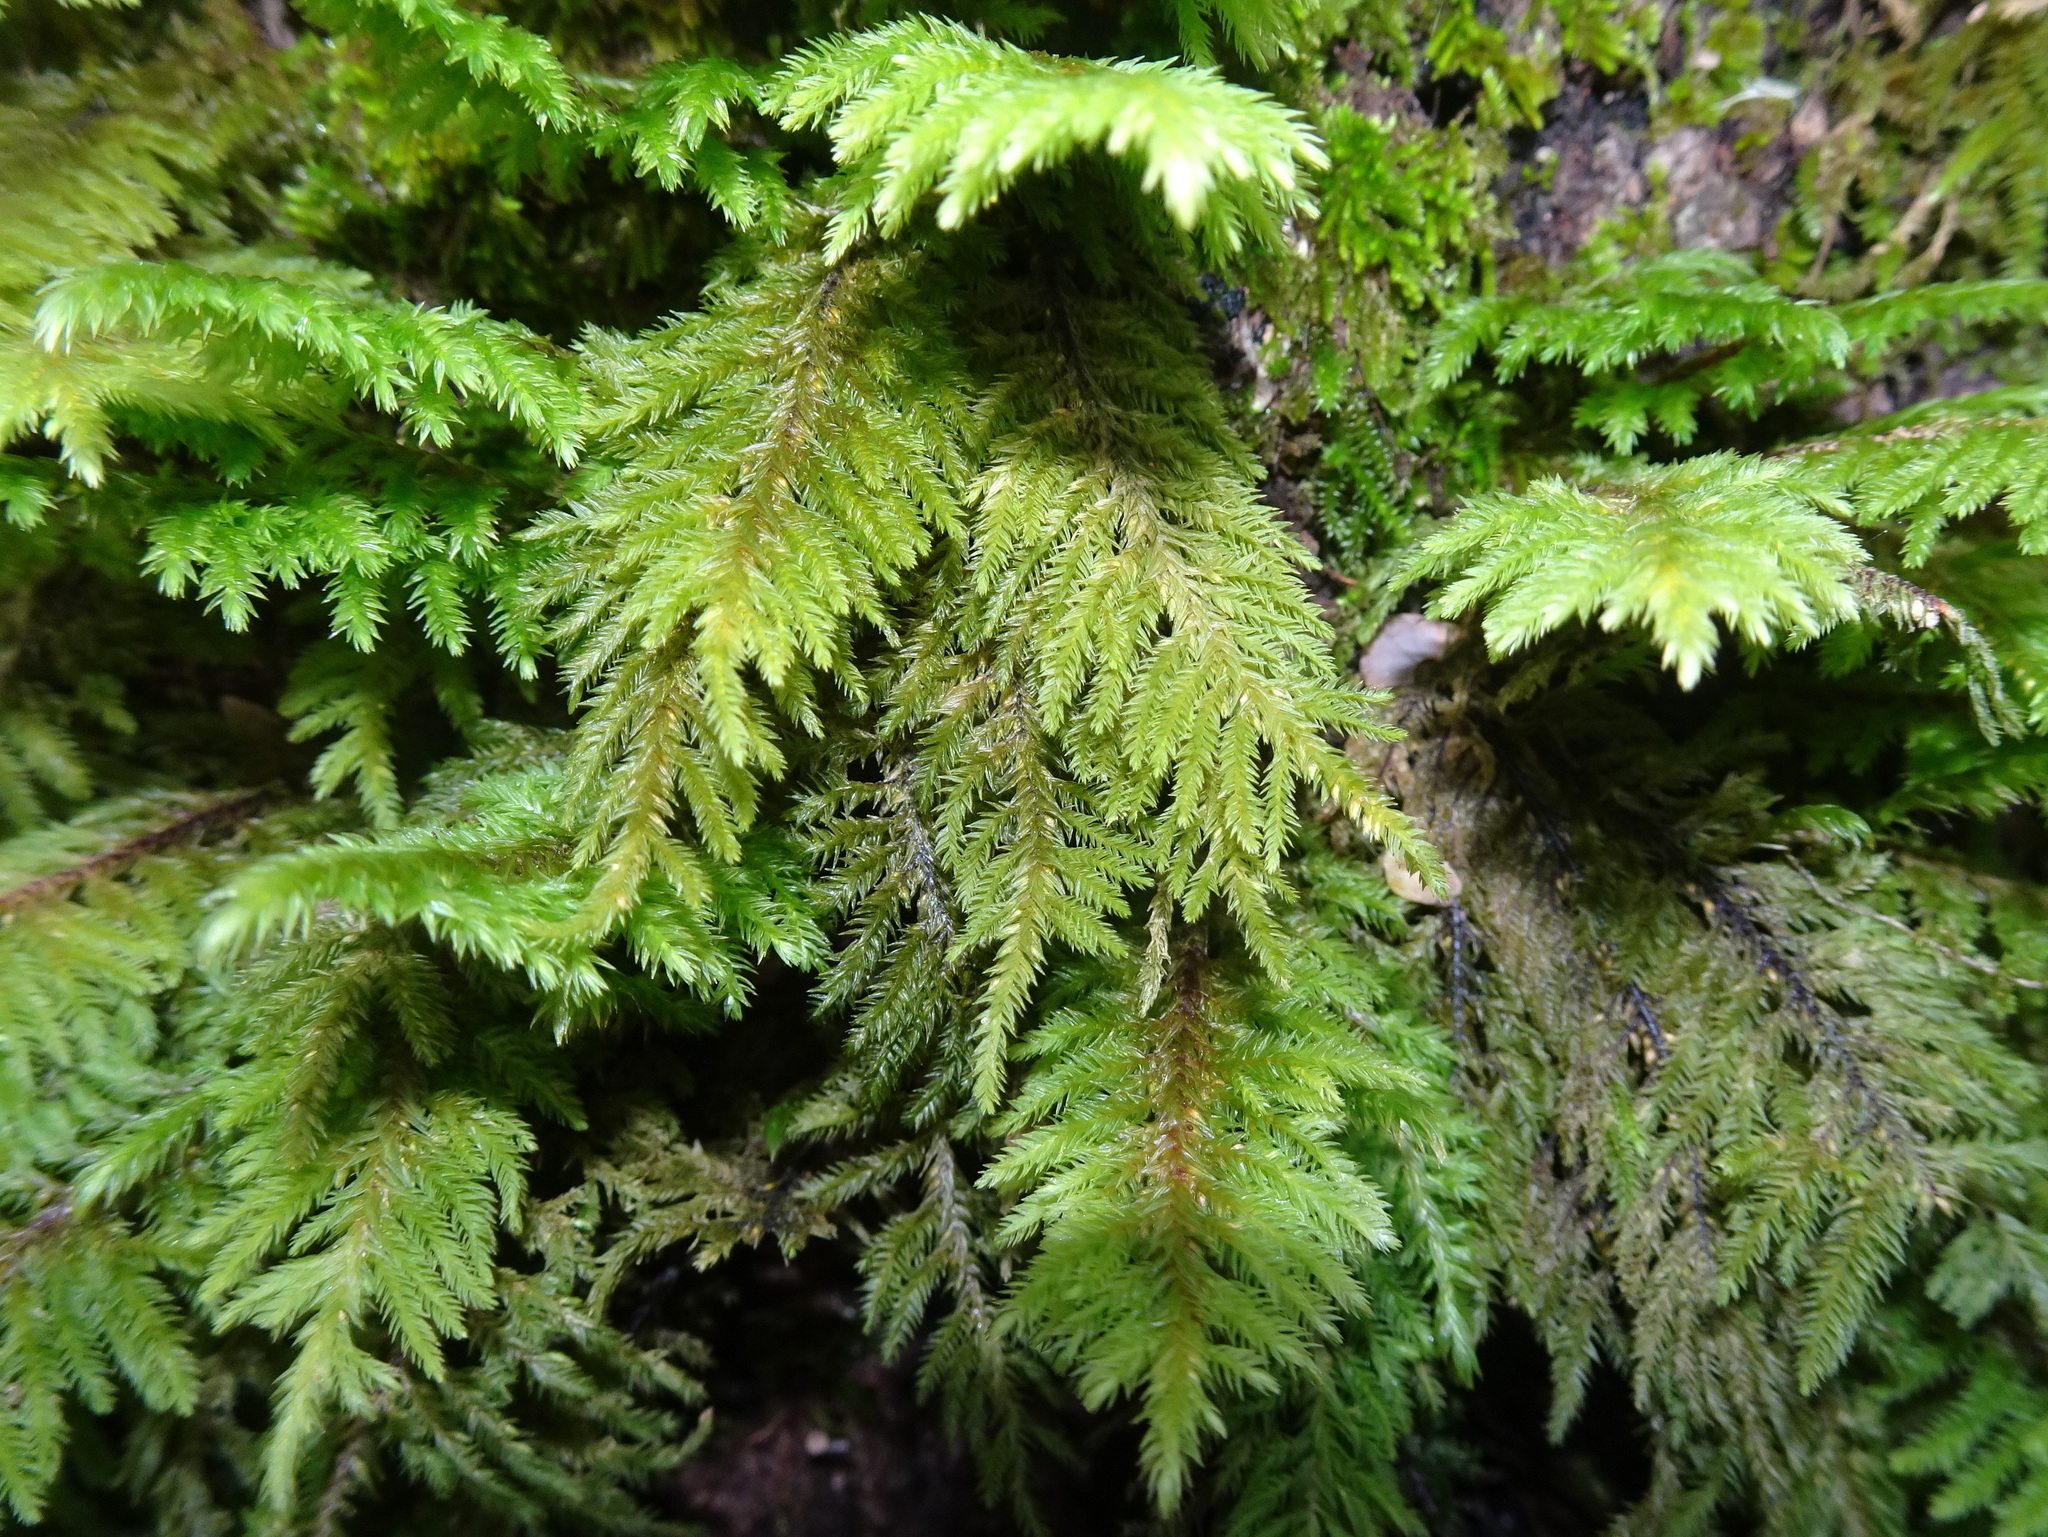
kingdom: Plantae
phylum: Bryophyta
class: Bryopsida
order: Hypnales
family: Cryphaeaceae
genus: Dendroalsia
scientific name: Dendroalsia abietina
